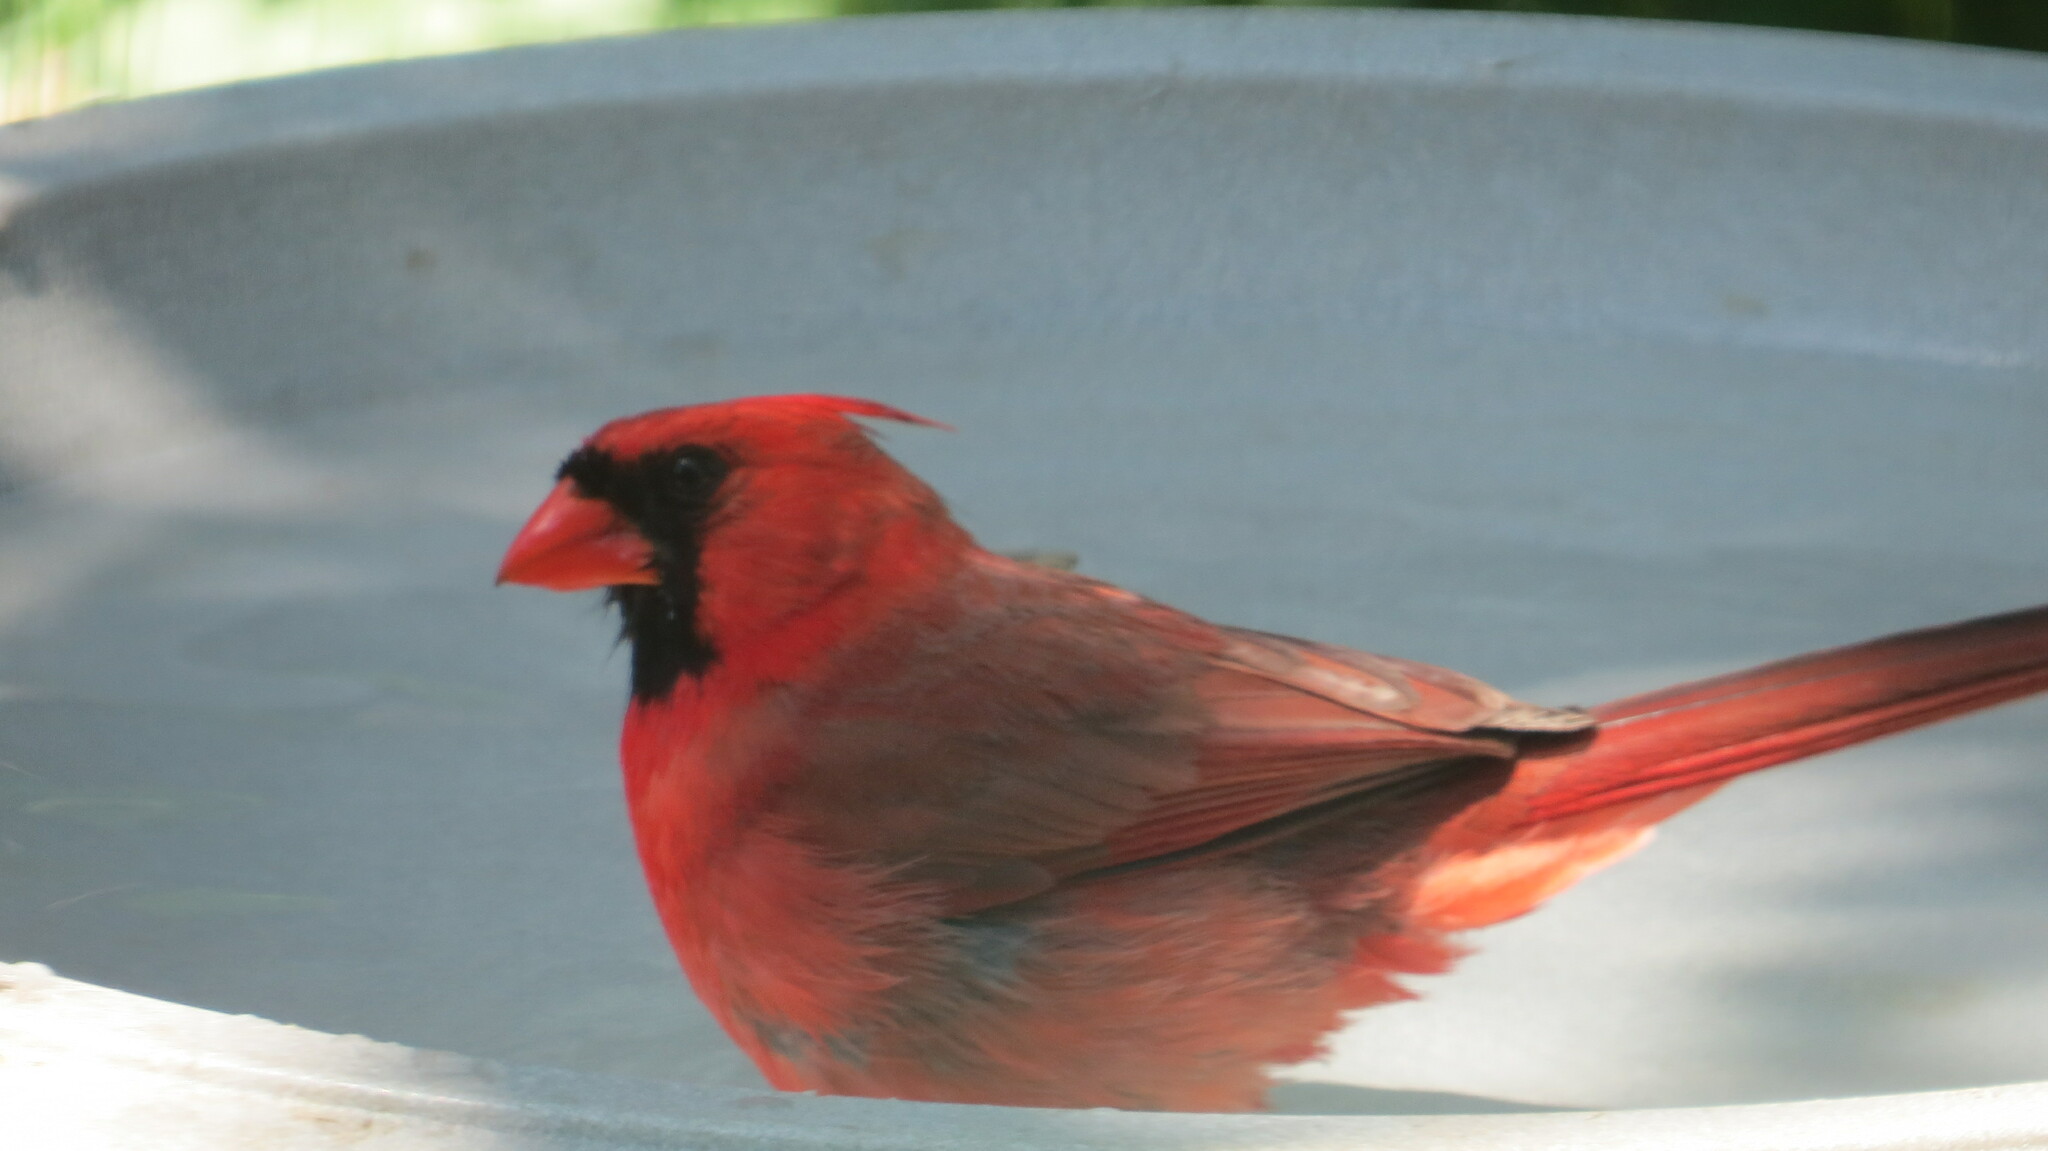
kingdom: Animalia
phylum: Chordata
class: Aves
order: Passeriformes
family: Cardinalidae
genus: Cardinalis
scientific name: Cardinalis cardinalis
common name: Northern cardinal
